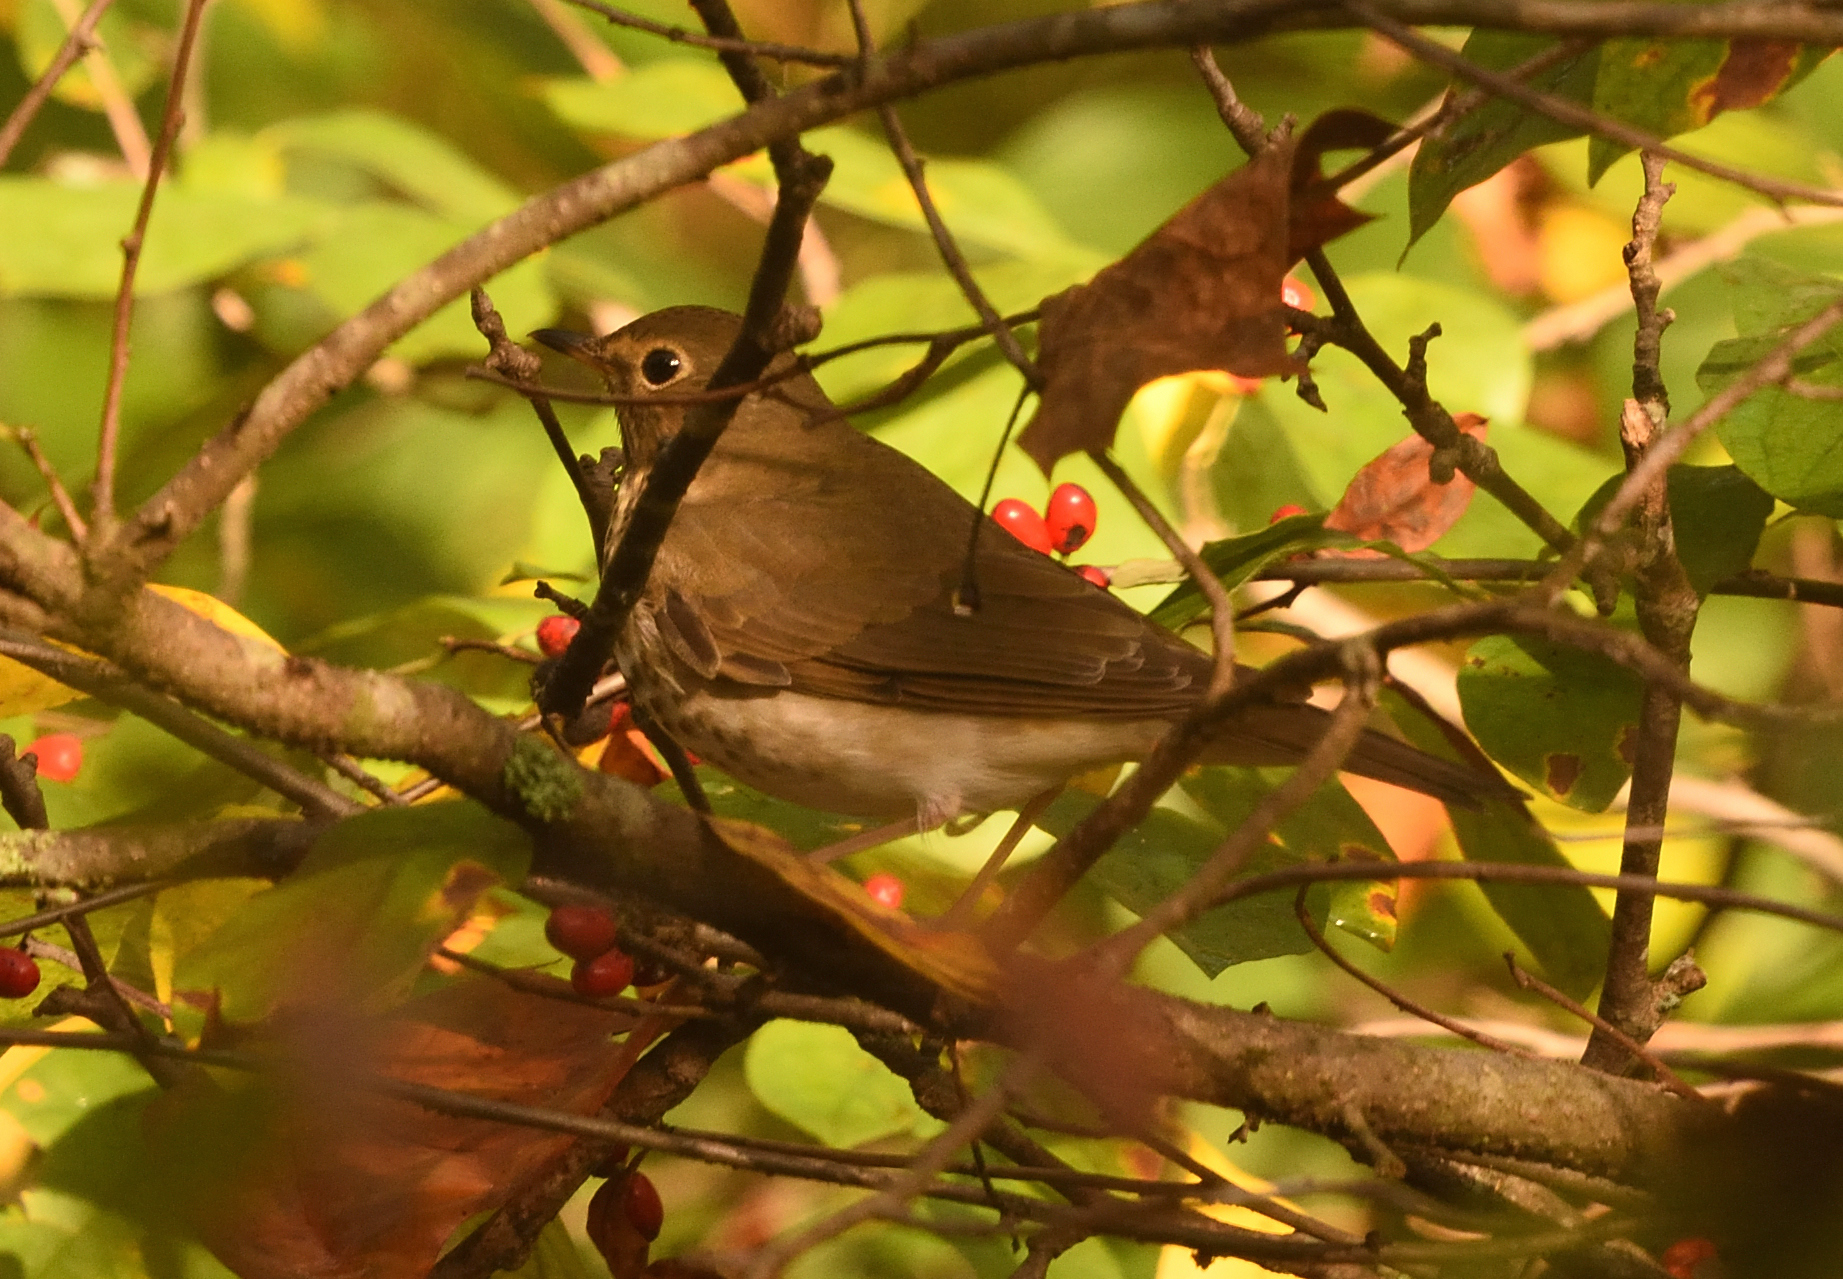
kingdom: Animalia
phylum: Chordata
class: Aves
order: Passeriformes
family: Turdidae
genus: Catharus
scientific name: Catharus ustulatus
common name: Swainson's thrush
